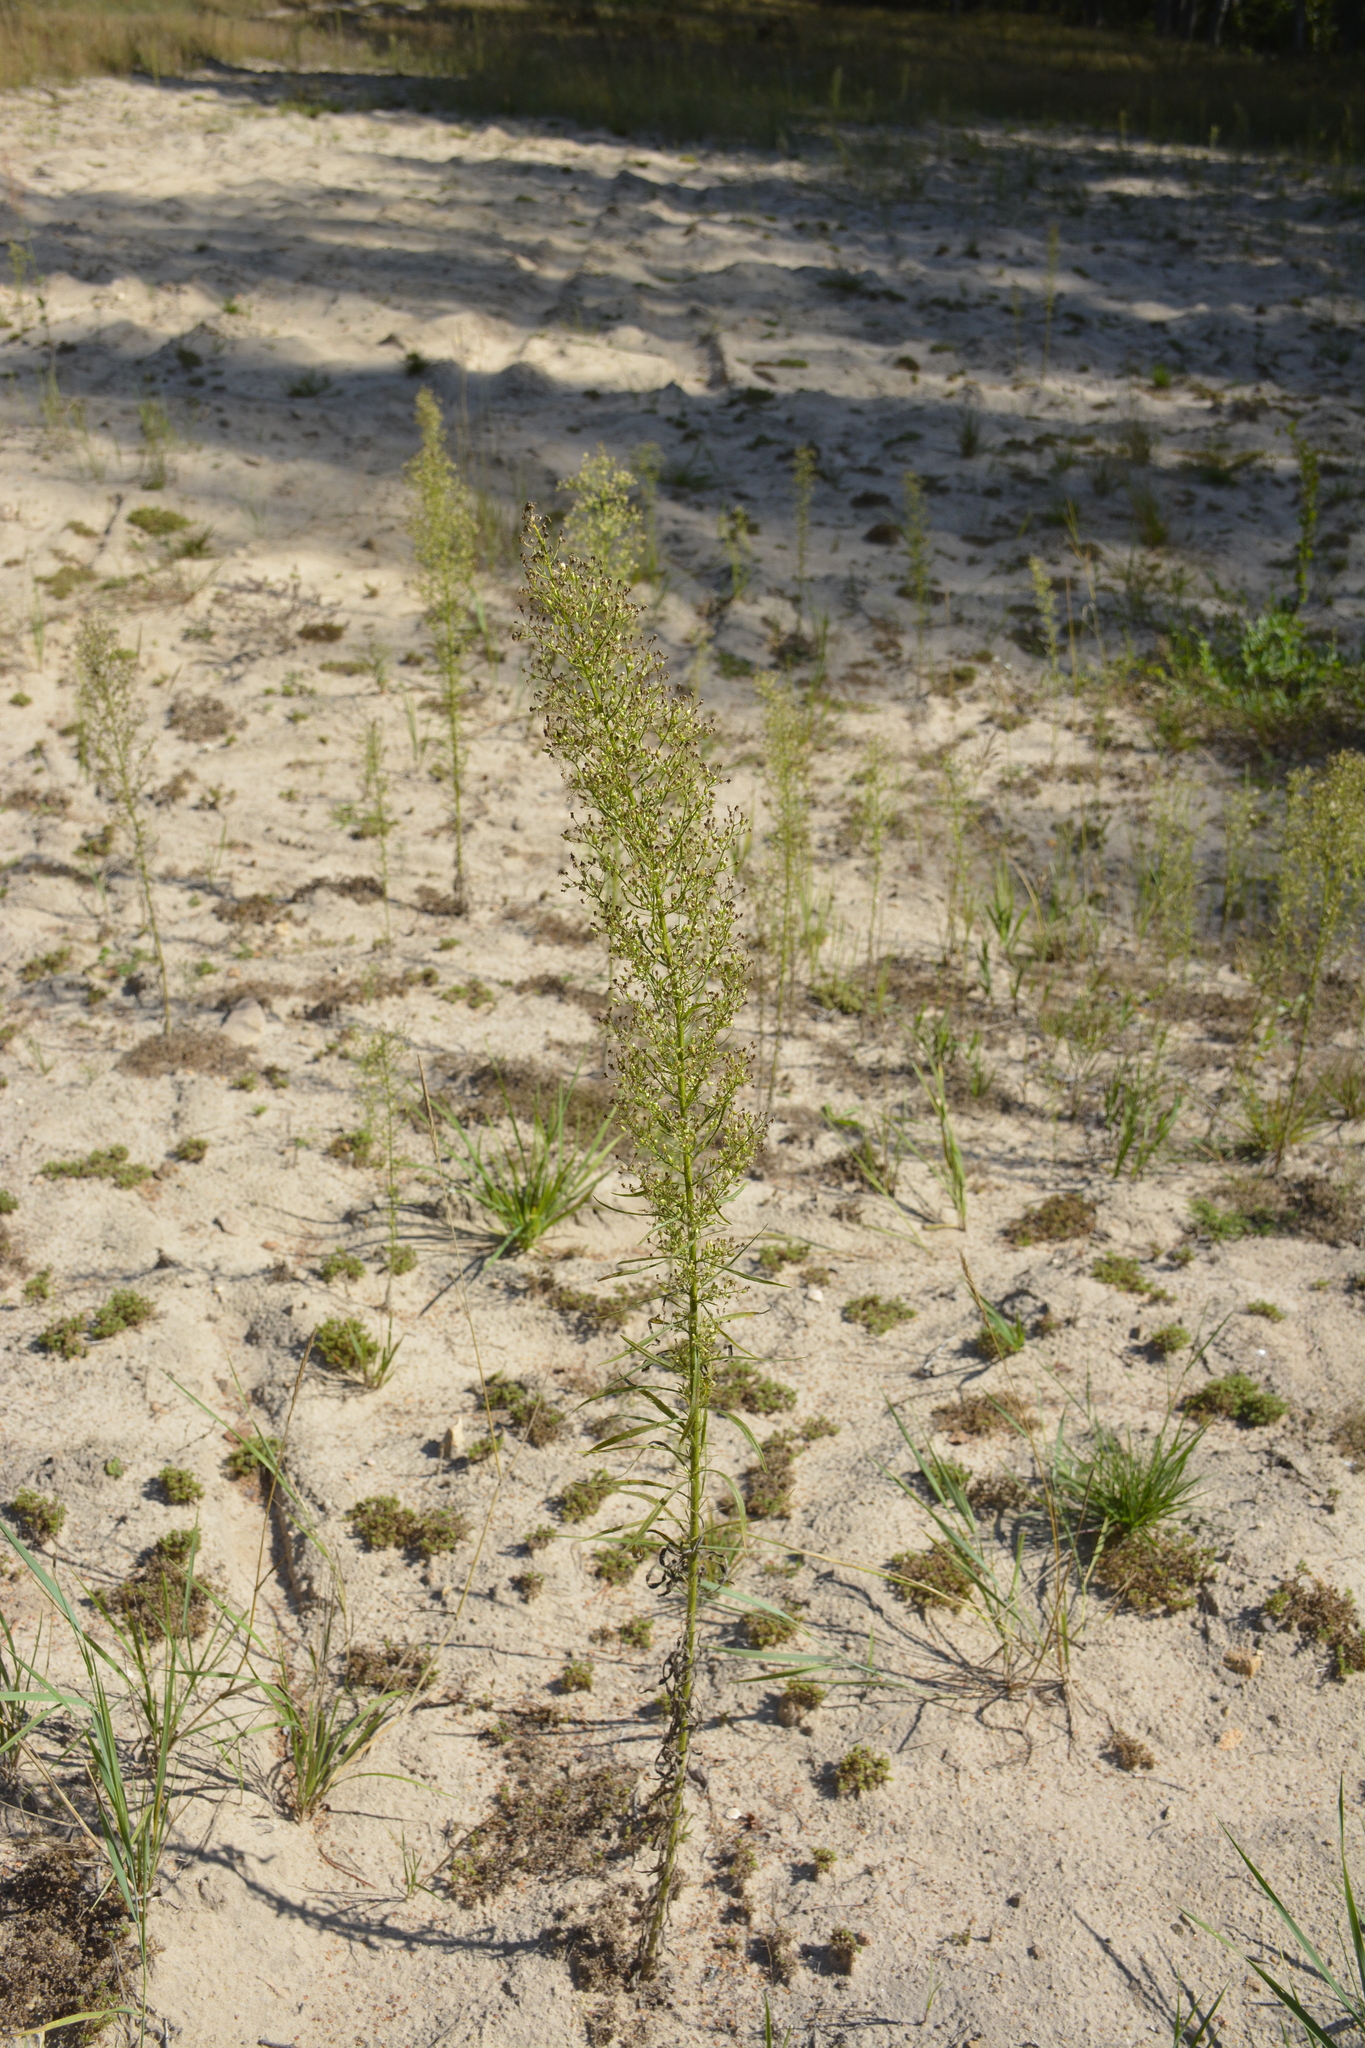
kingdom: Plantae
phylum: Tracheophyta
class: Magnoliopsida
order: Asterales
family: Asteraceae
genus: Erigeron
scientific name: Erigeron canadensis
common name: Canadian fleabane
